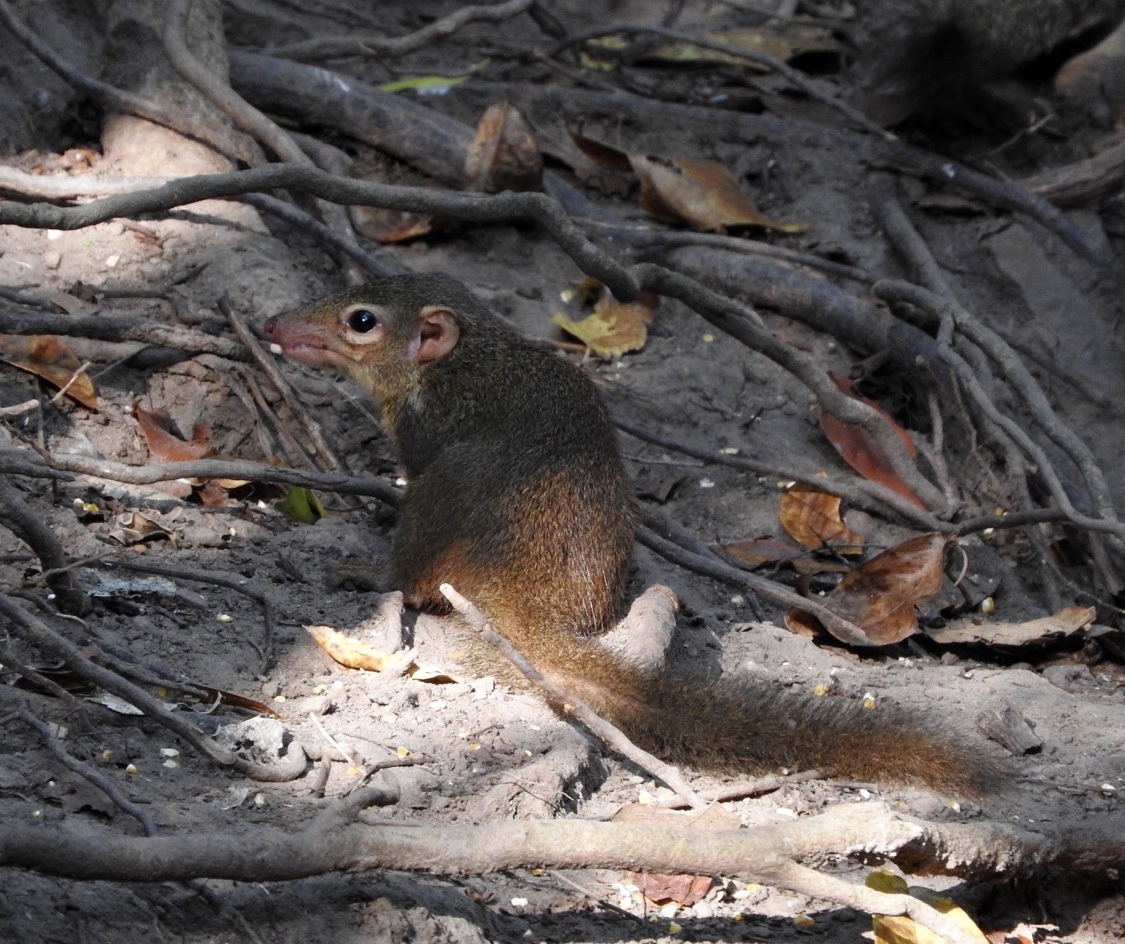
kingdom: Animalia
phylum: Chordata
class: Mammalia
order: Scandentia
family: Tupaiidae
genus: Tupaia
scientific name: Tupaia belangeri
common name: Northern treeshrew
